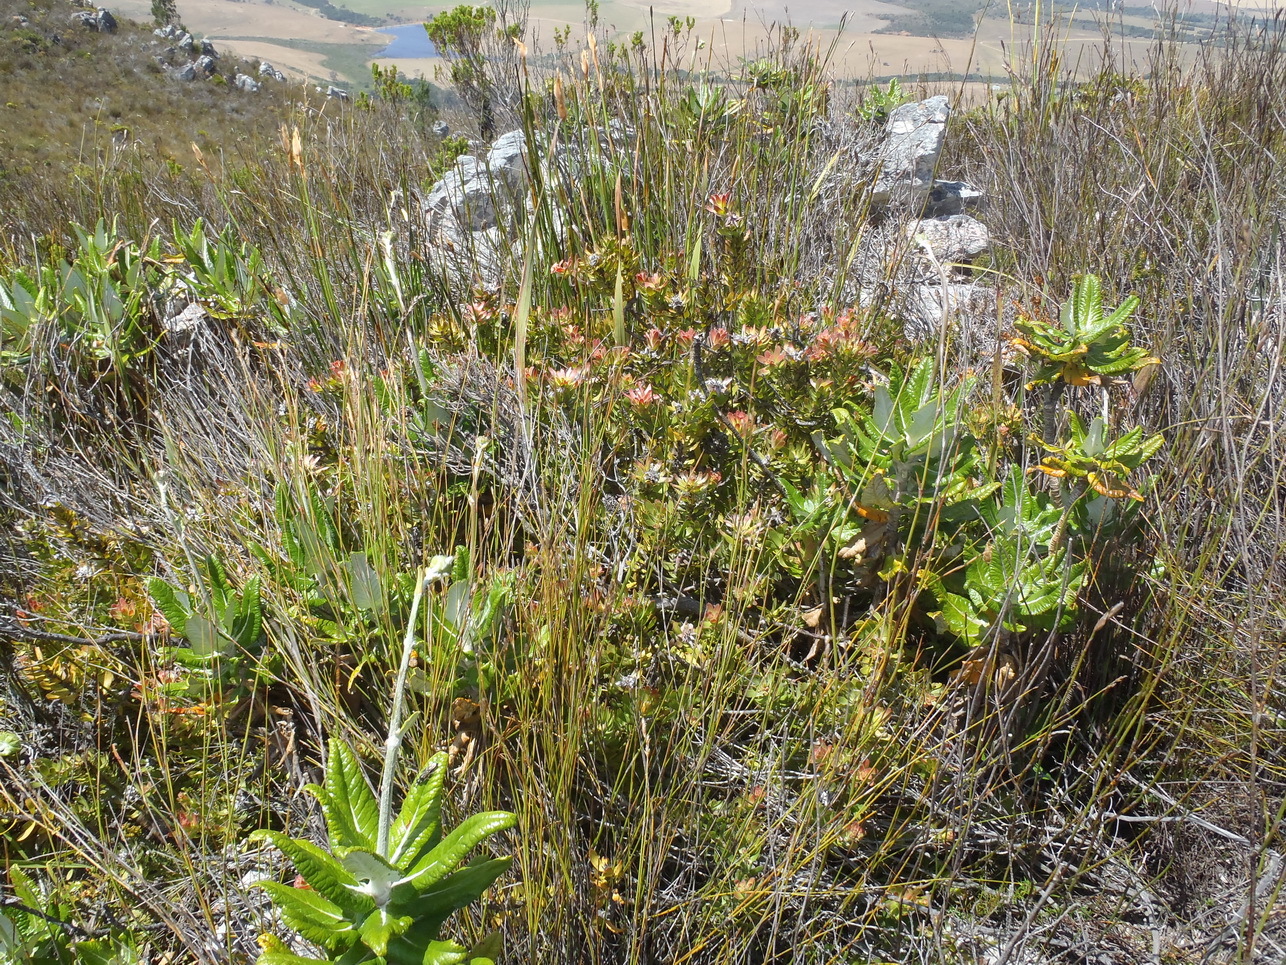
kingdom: Plantae
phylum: Tracheophyta
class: Magnoliopsida
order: Apiales
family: Apiaceae
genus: Hermas
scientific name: Hermas villosa
